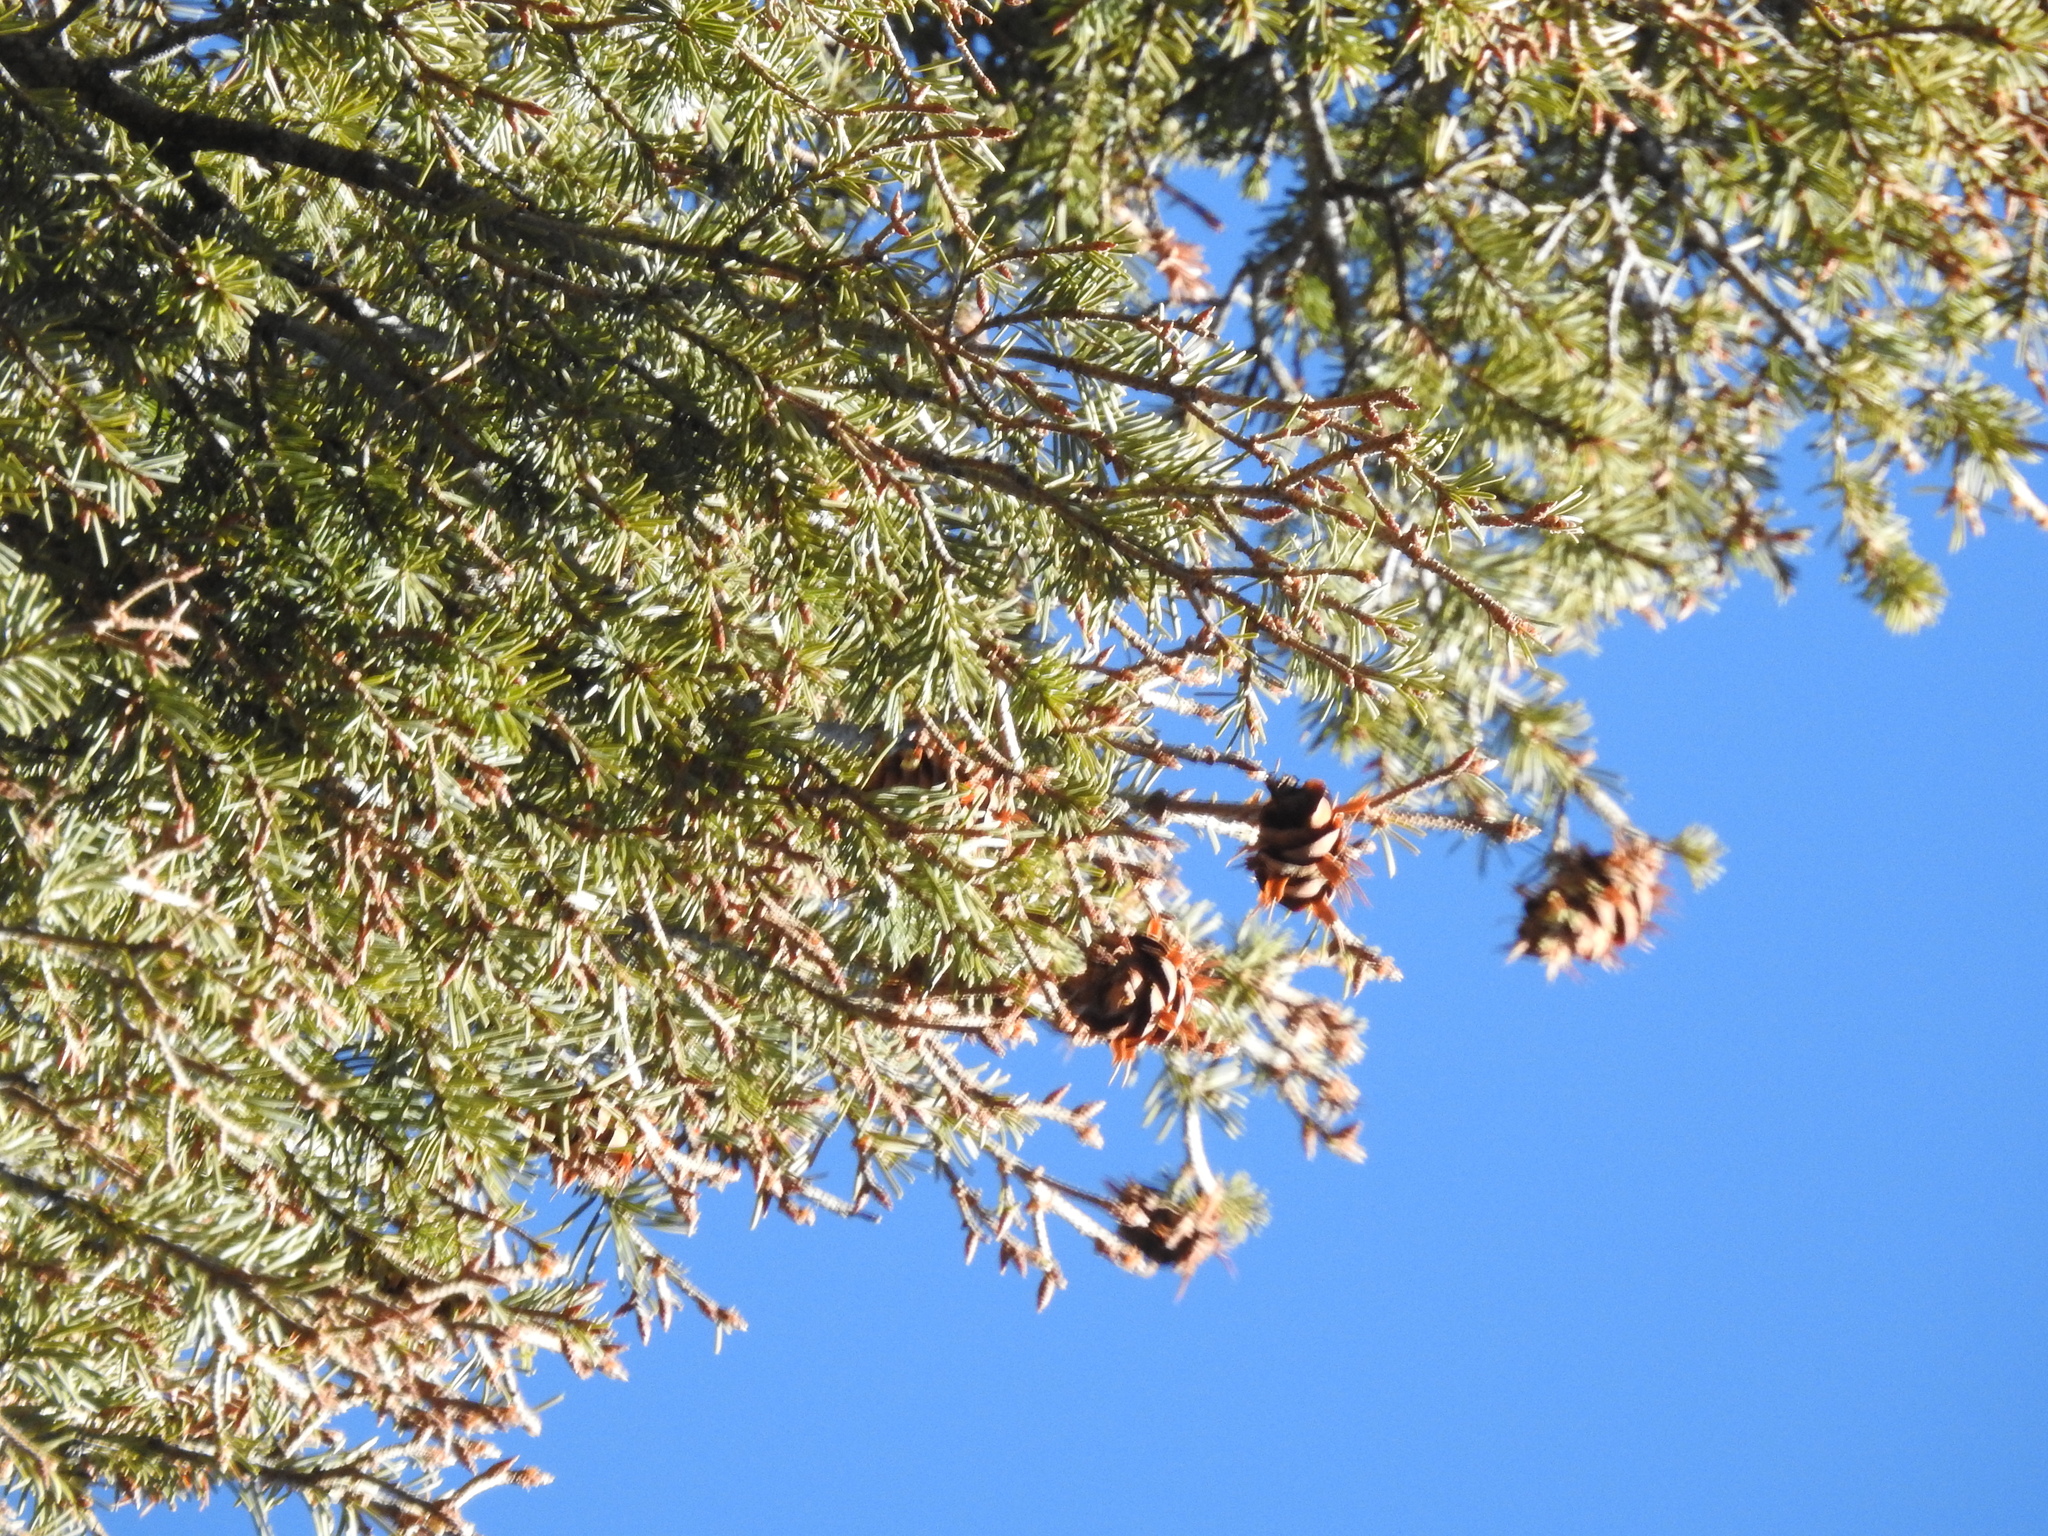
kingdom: Plantae
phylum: Tracheophyta
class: Pinopsida
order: Pinales
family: Pinaceae
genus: Pseudotsuga
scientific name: Pseudotsuga menziesii
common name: Douglas fir
